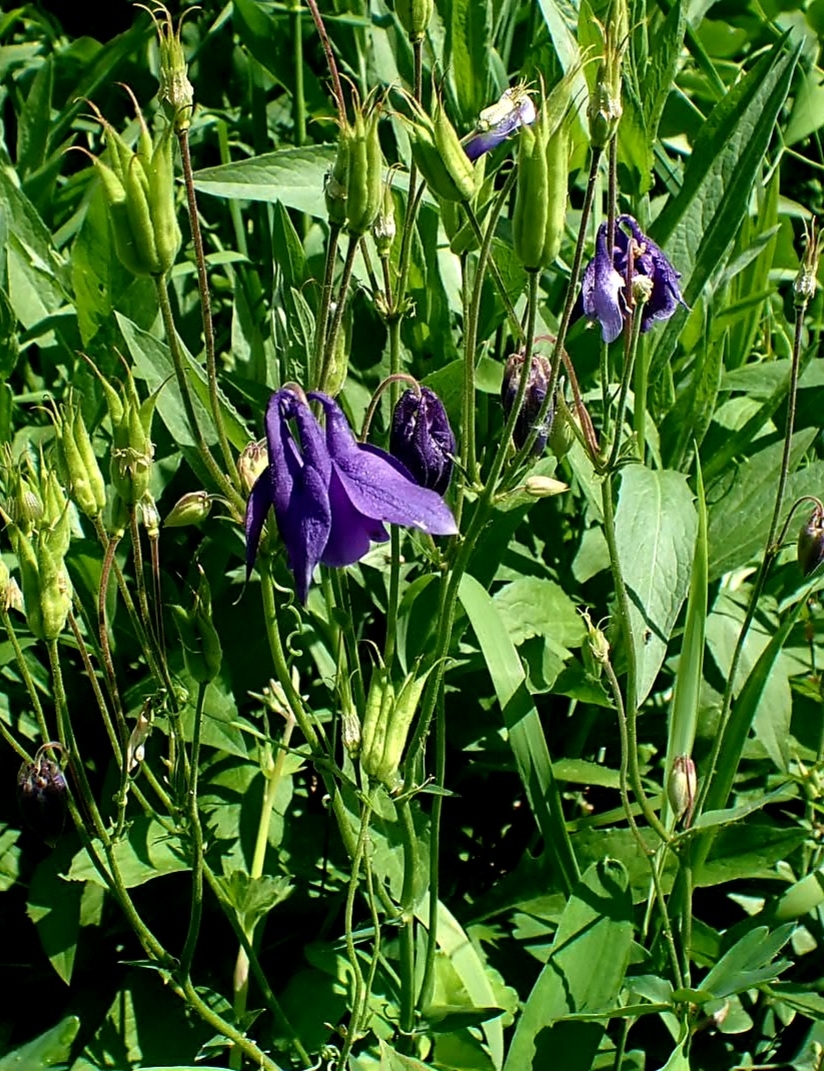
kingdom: Plantae
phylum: Tracheophyta
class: Magnoliopsida
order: Ranunculales
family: Ranunculaceae
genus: Aquilegia
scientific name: Aquilegia vulgaris
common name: Columbine
